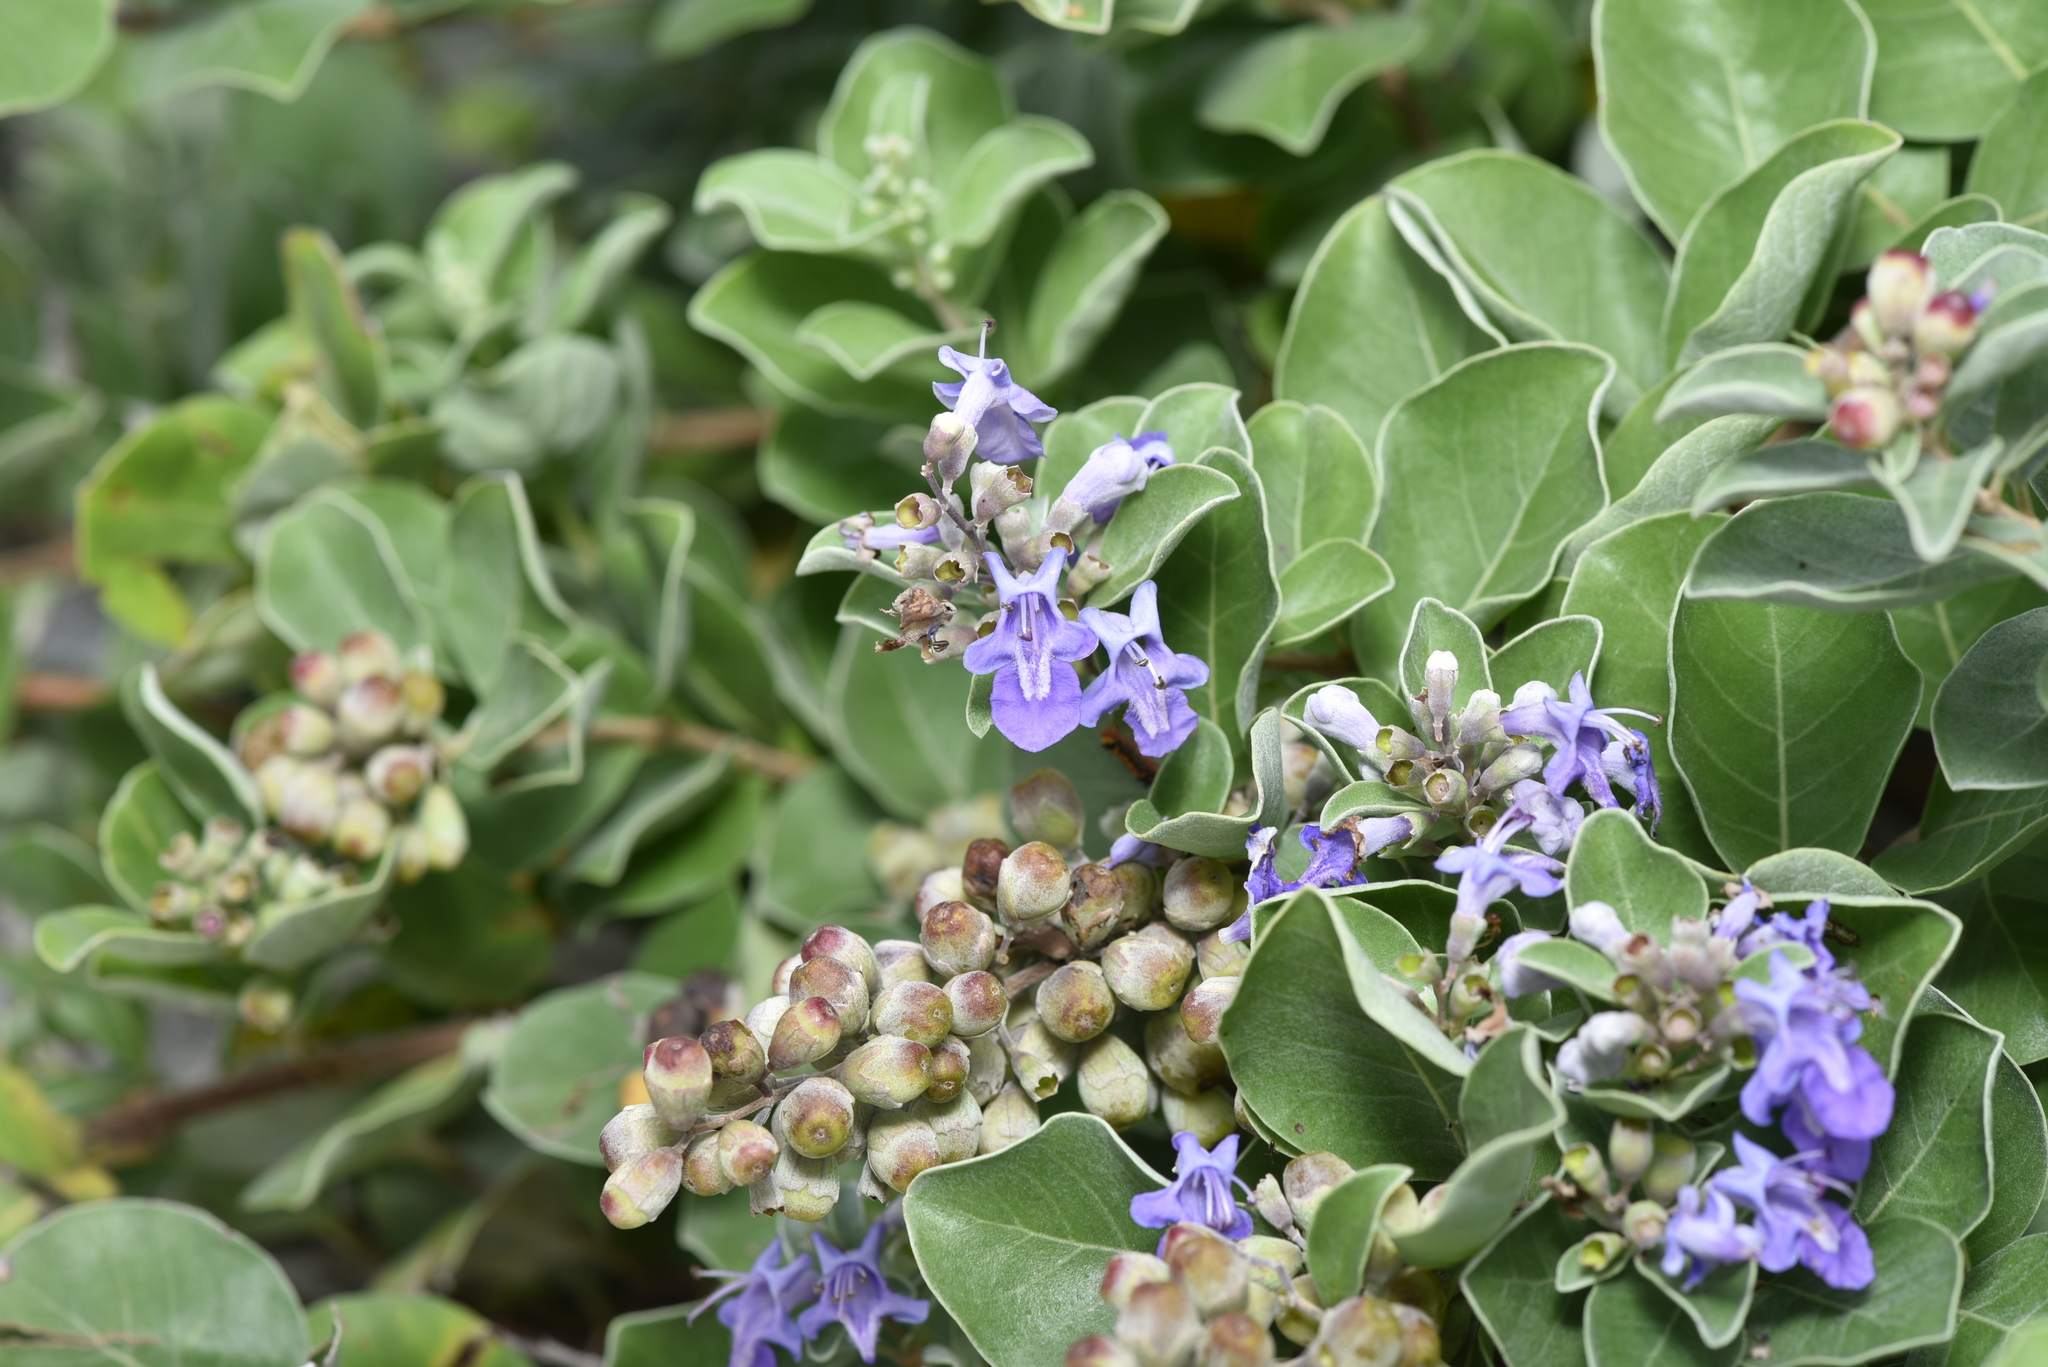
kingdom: Plantae
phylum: Tracheophyta
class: Magnoliopsida
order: Lamiales
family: Lamiaceae
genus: Vitex
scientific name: Vitex rotundifolia
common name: Beach vitex
